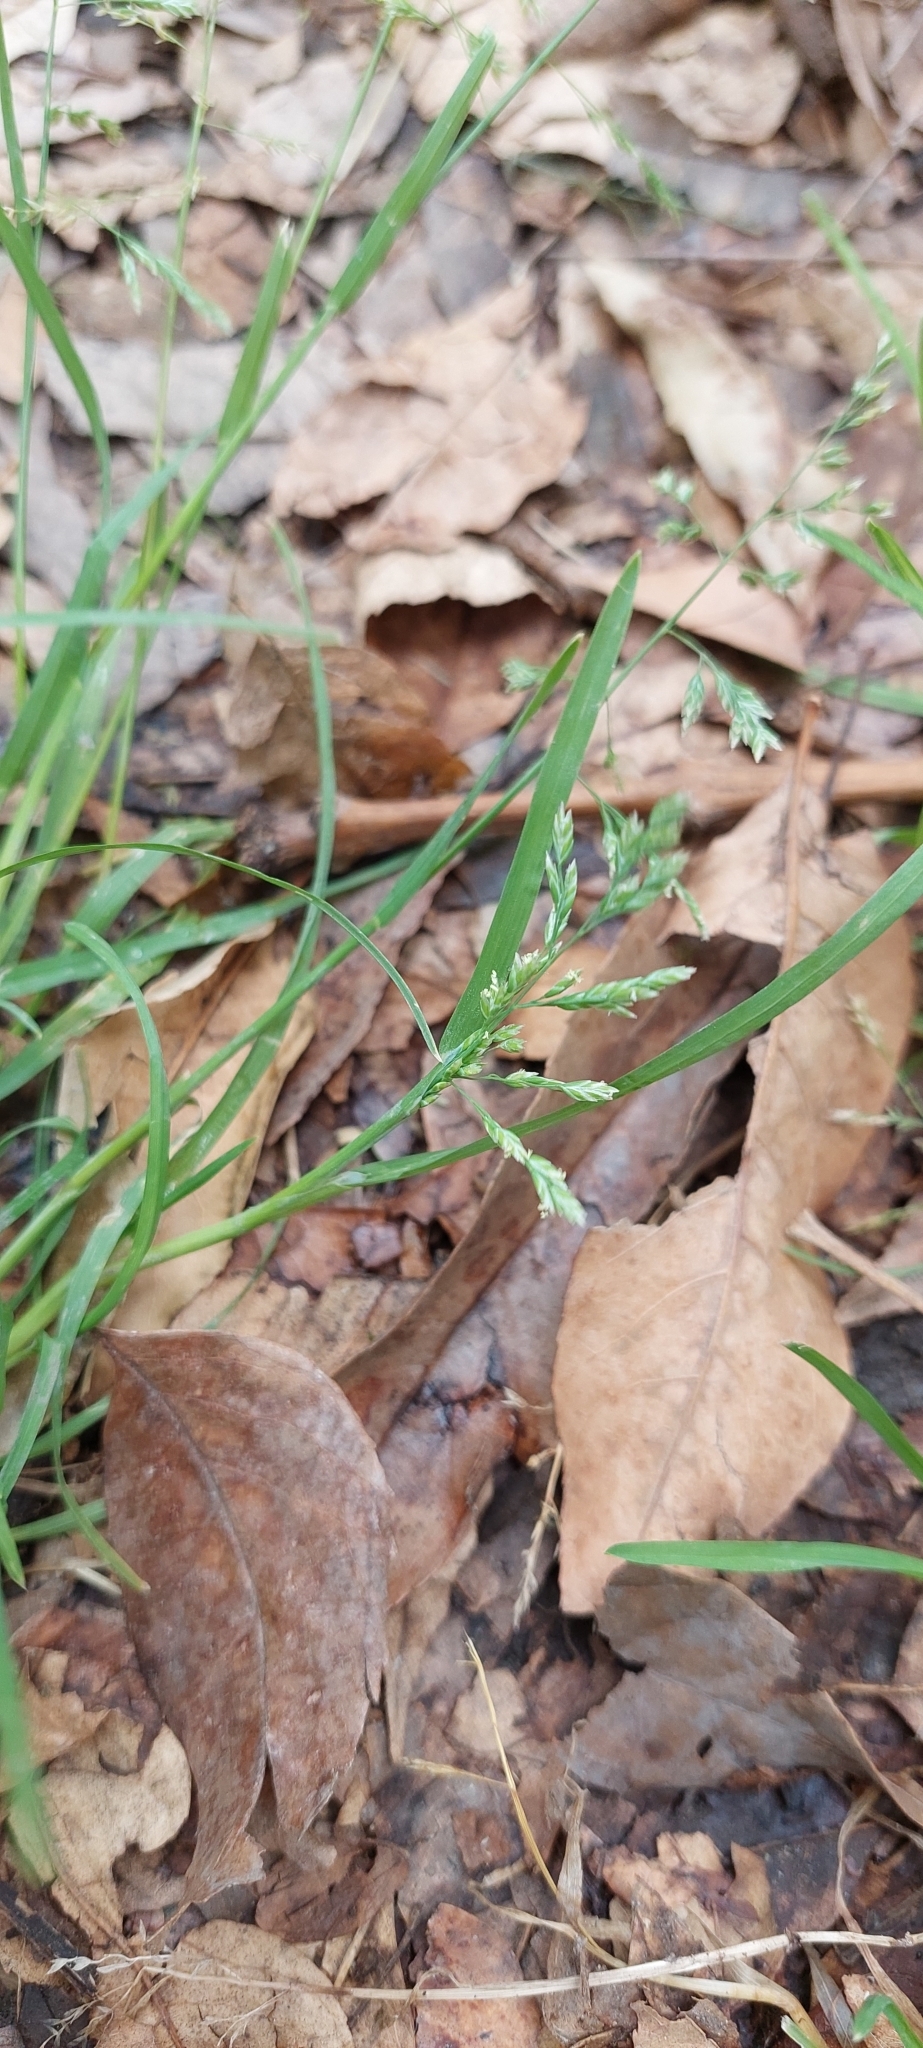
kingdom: Plantae
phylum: Tracheophyta
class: Liliopsida
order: Poales
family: Poaceae
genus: Poa
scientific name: Poa annua
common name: Annual bluegrass
